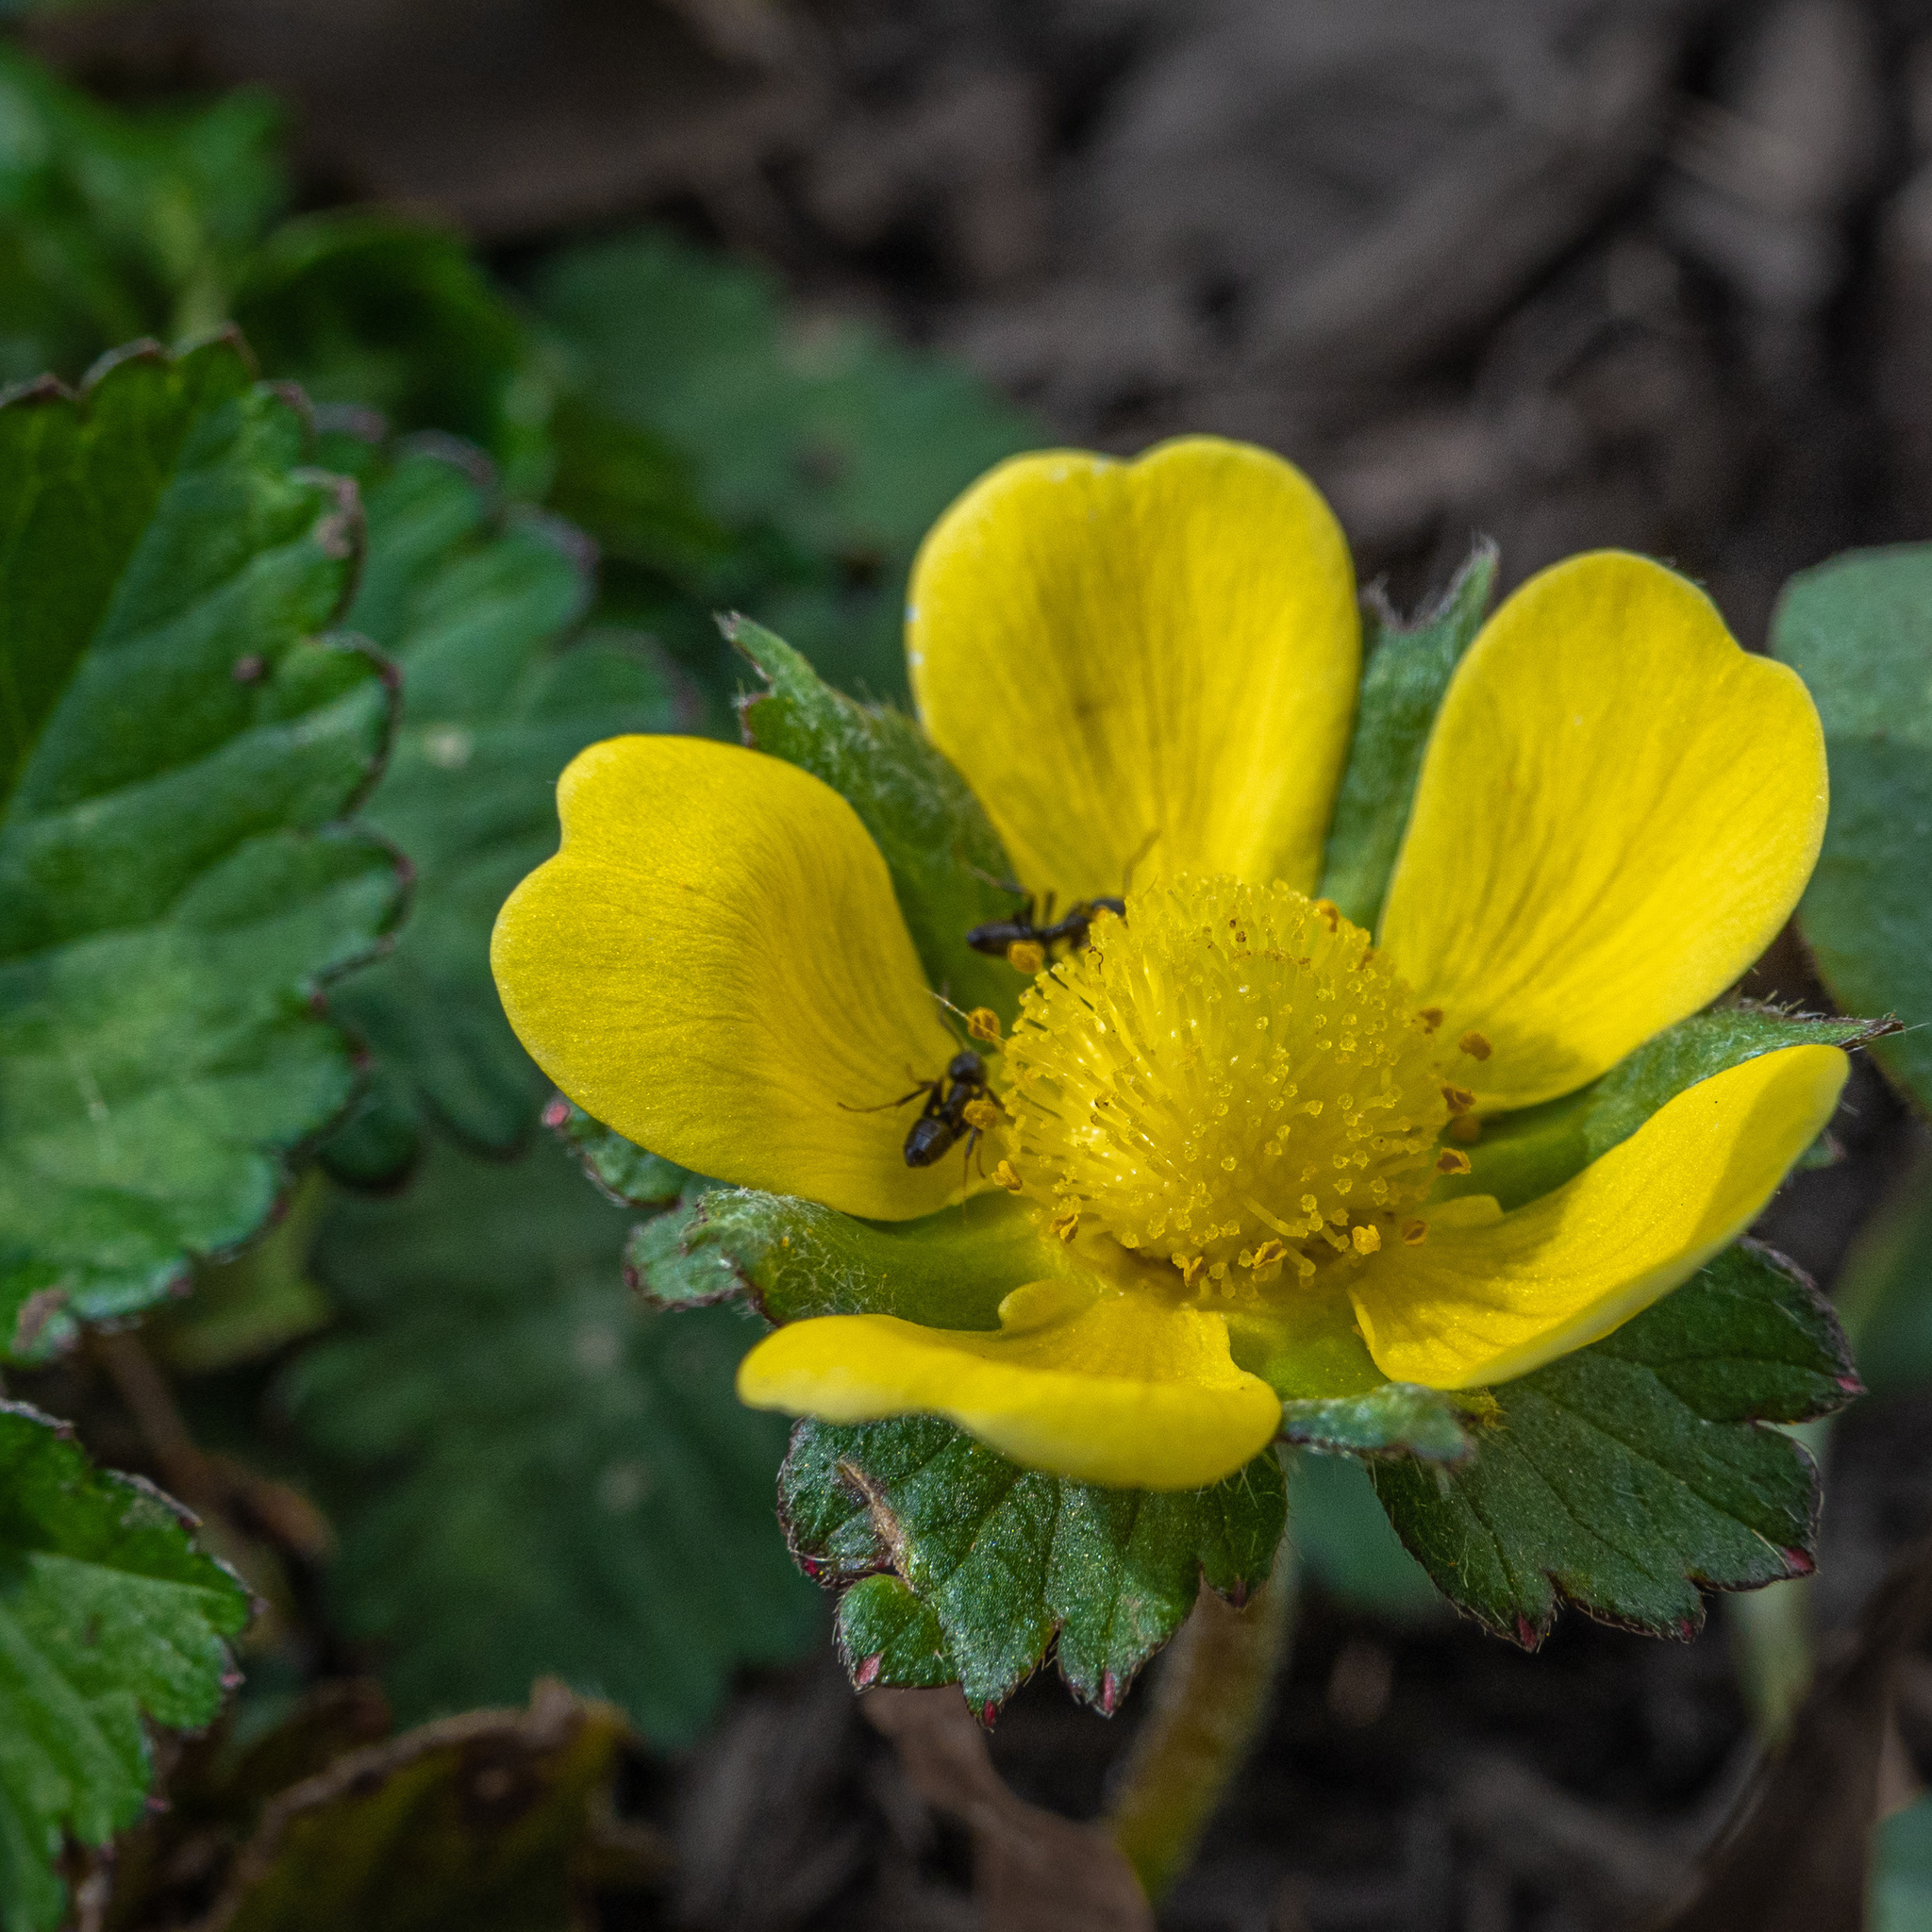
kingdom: Animalia
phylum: Arthropoda
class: Insecta
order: Hymenoptera
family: Formicidae
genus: Tapinoma
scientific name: Tapinoma sessile
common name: Odorous house ant
